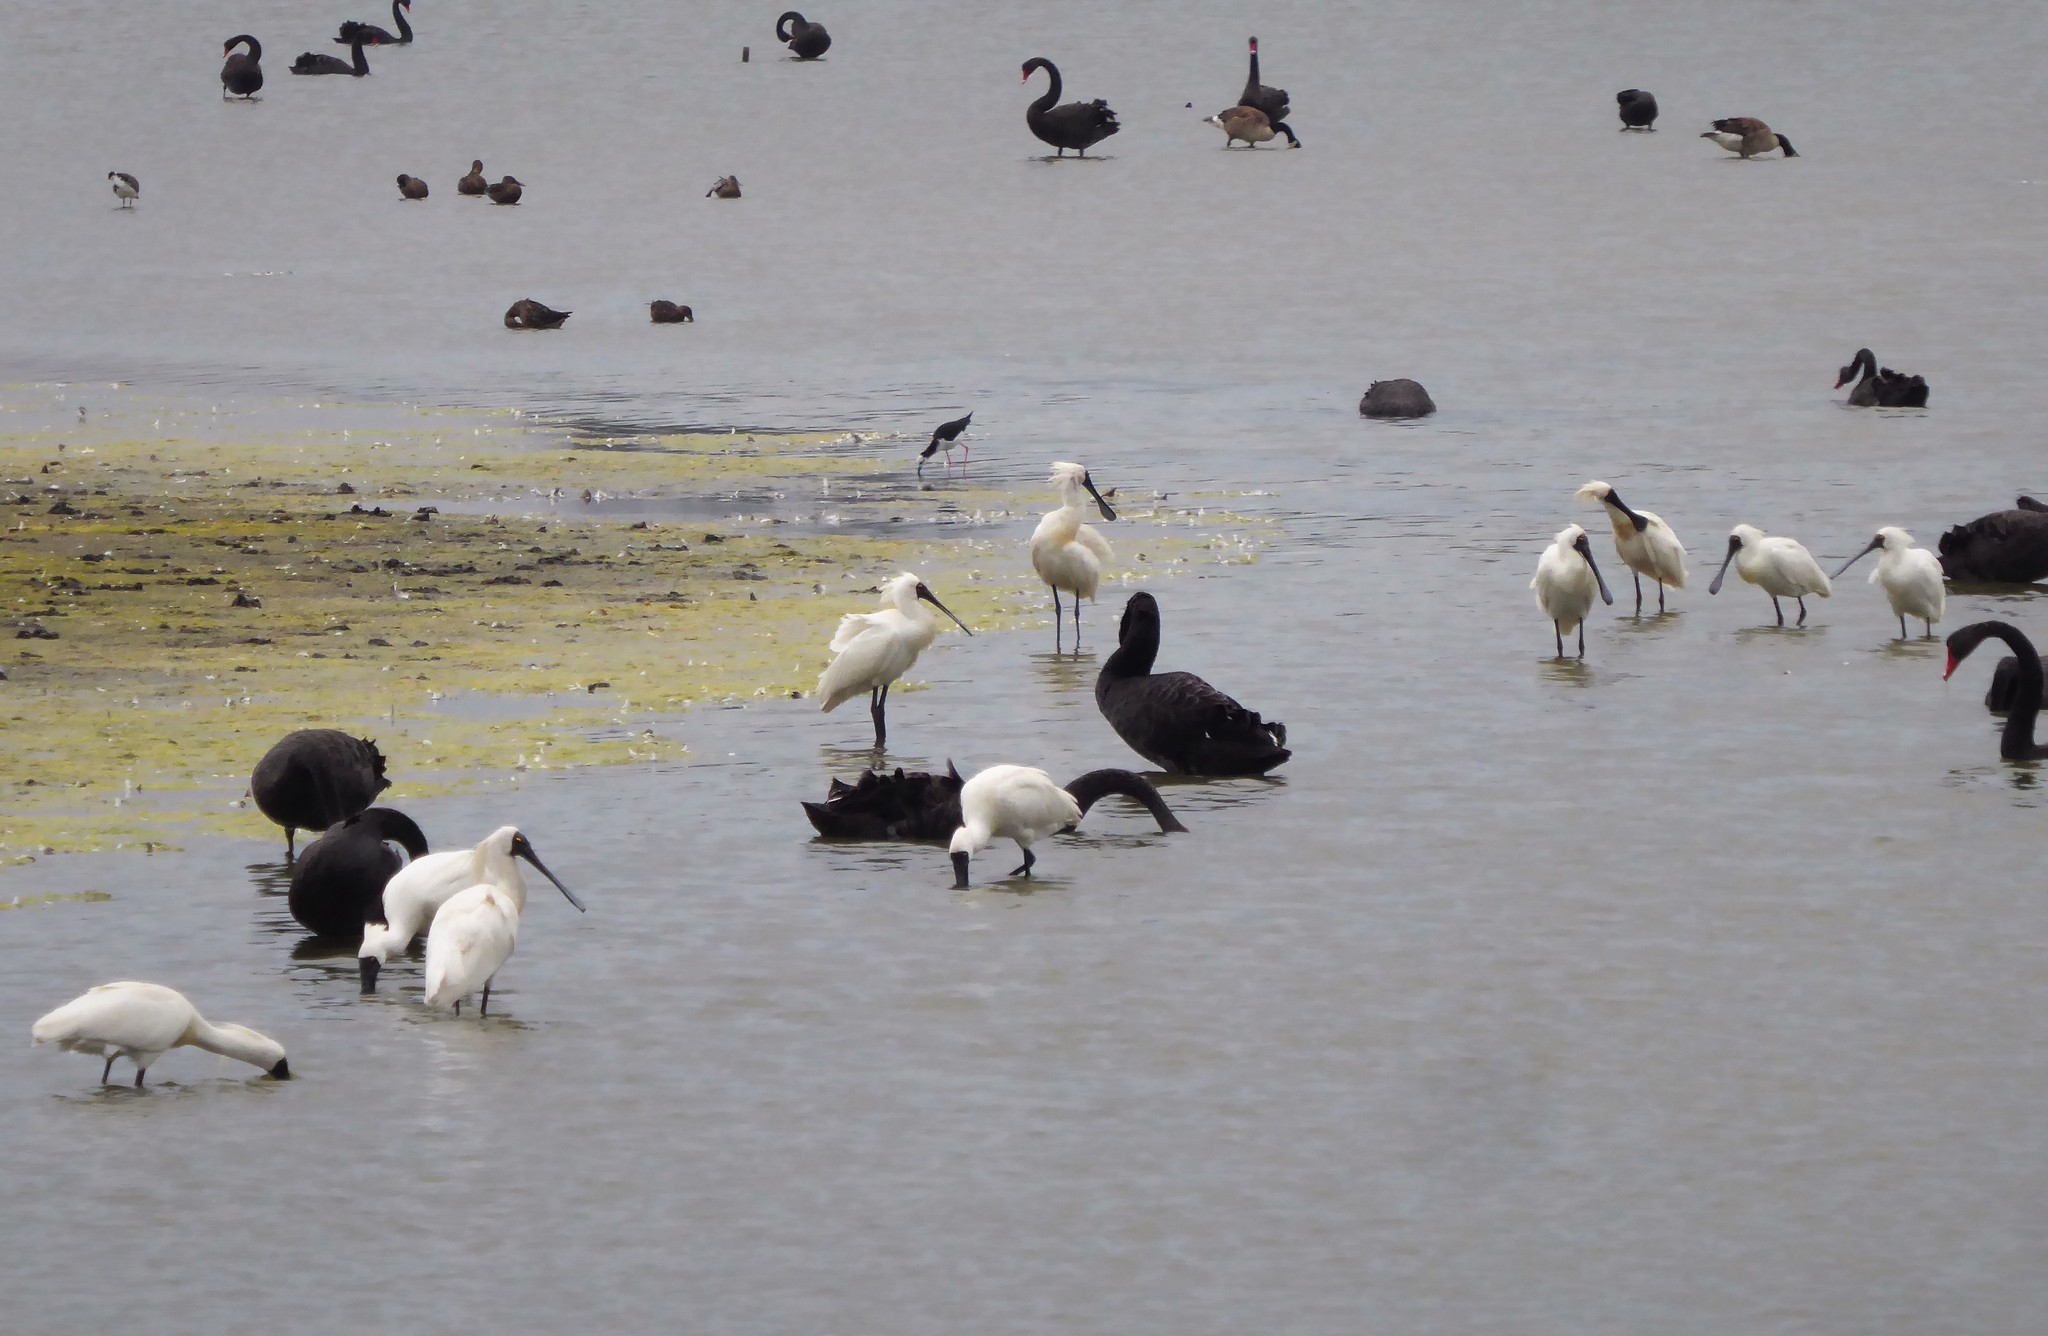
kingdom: Animalia
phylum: Chordata
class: Aves
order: Pelecaniformes
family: Threskiornithidae
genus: Platalea
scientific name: Platalea regia
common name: Royal spoonbill
